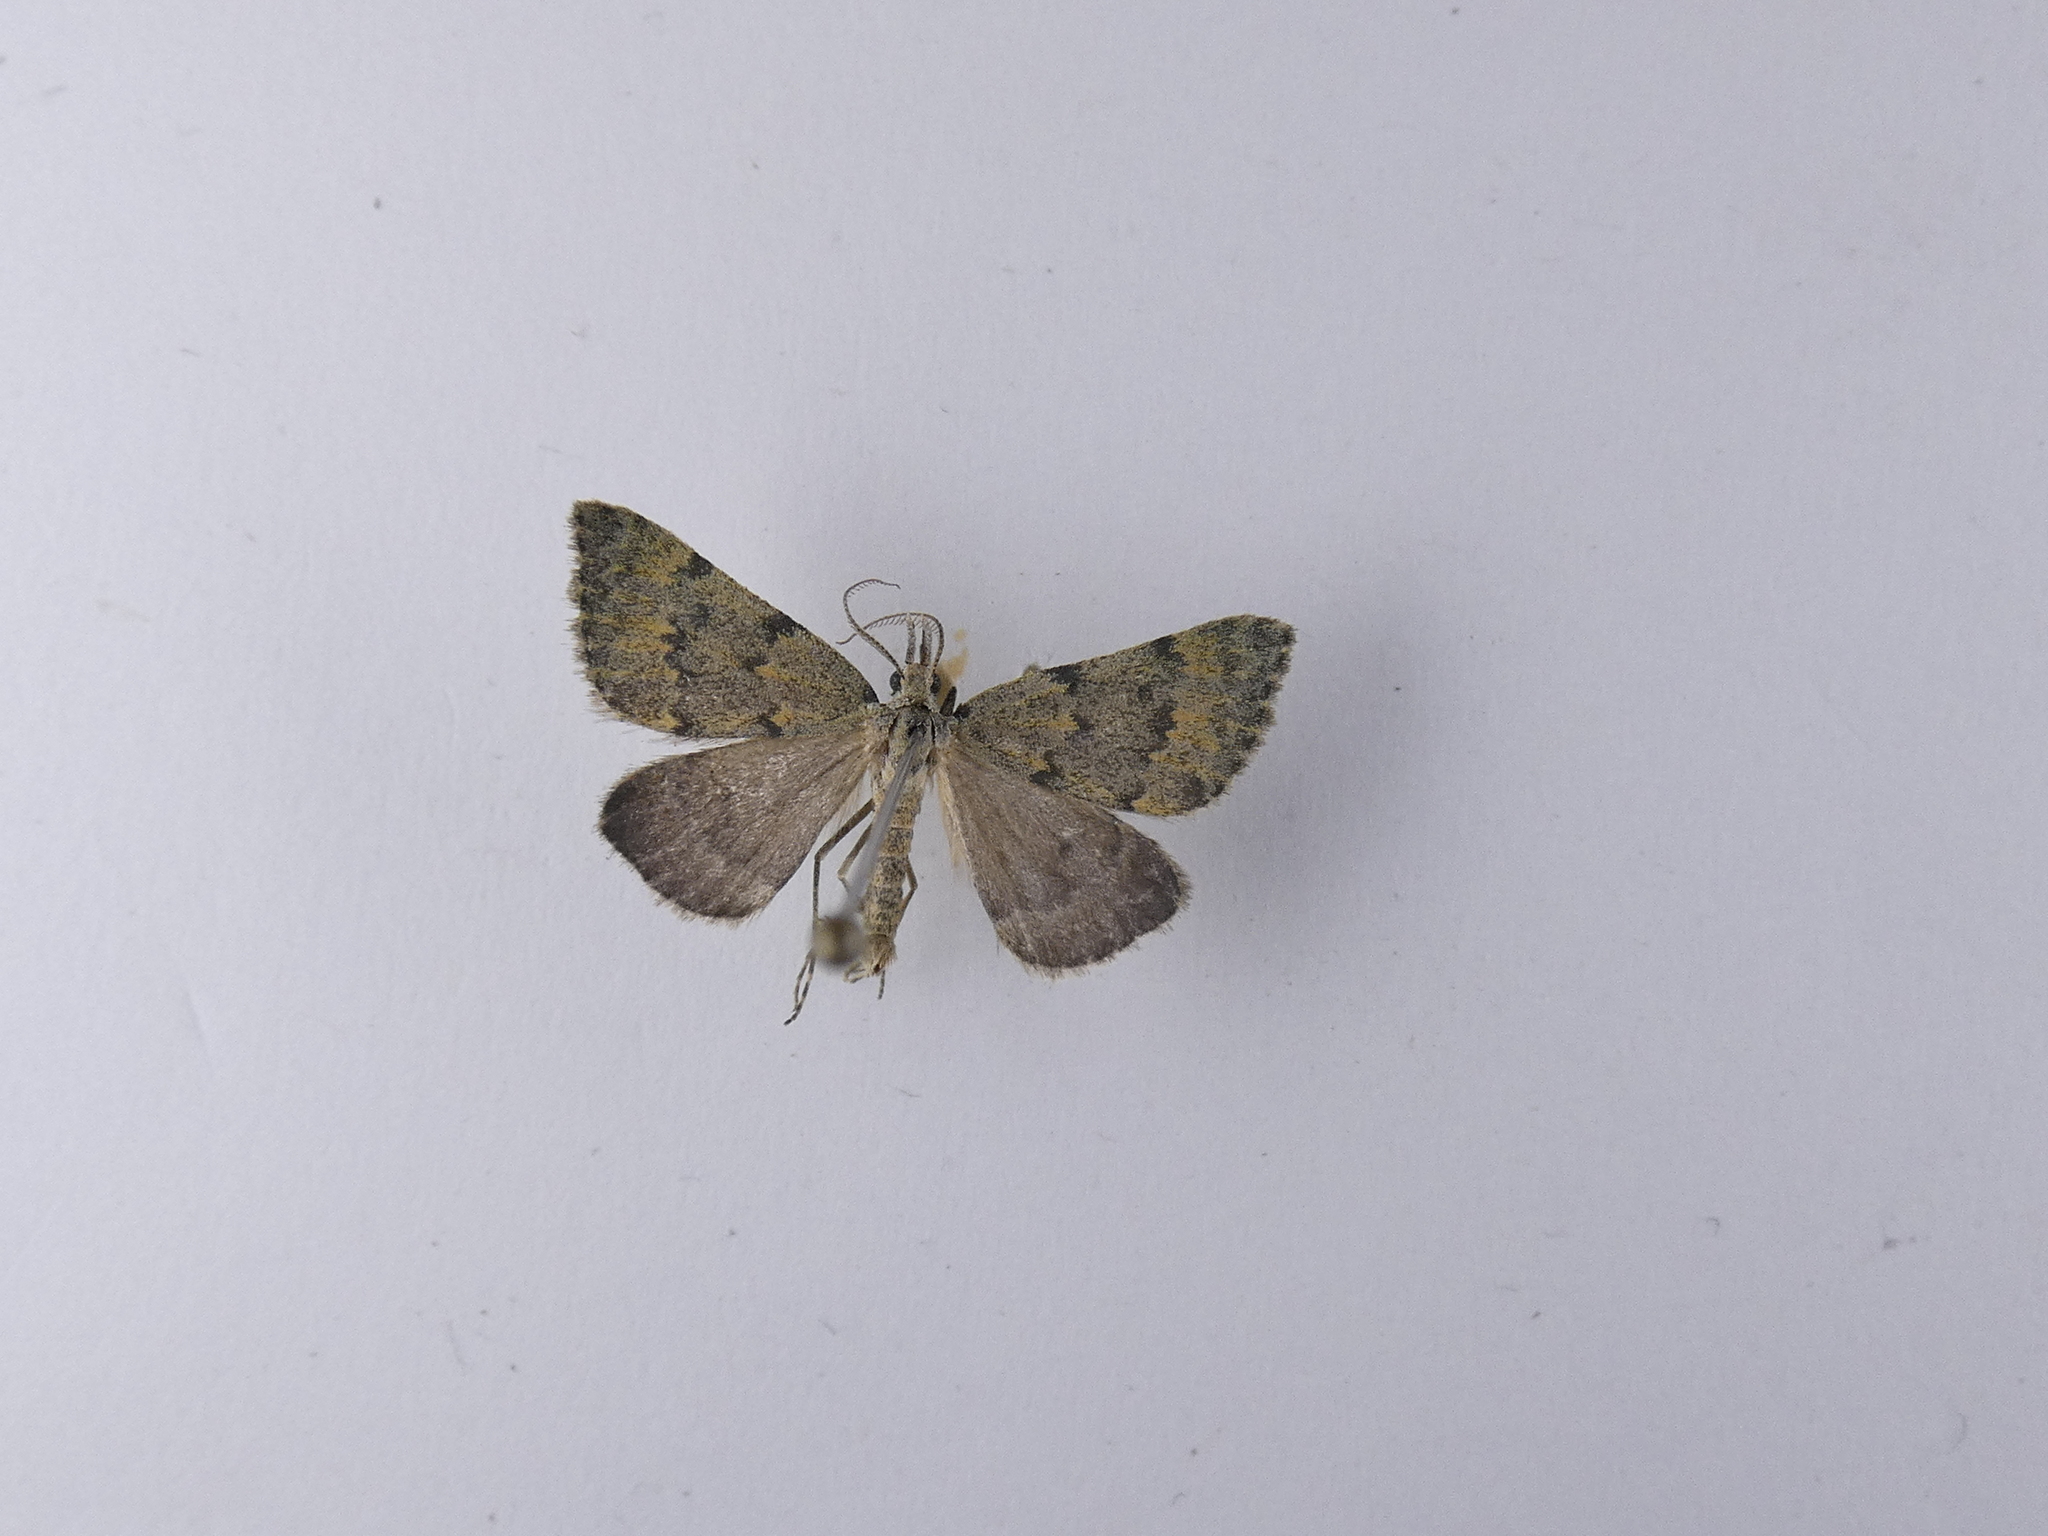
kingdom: Animalia
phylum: Arthropoda
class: Insecta
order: Lepidoptera
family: Geometridae
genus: Dichromodes
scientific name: Dichromodes sphaeriata
